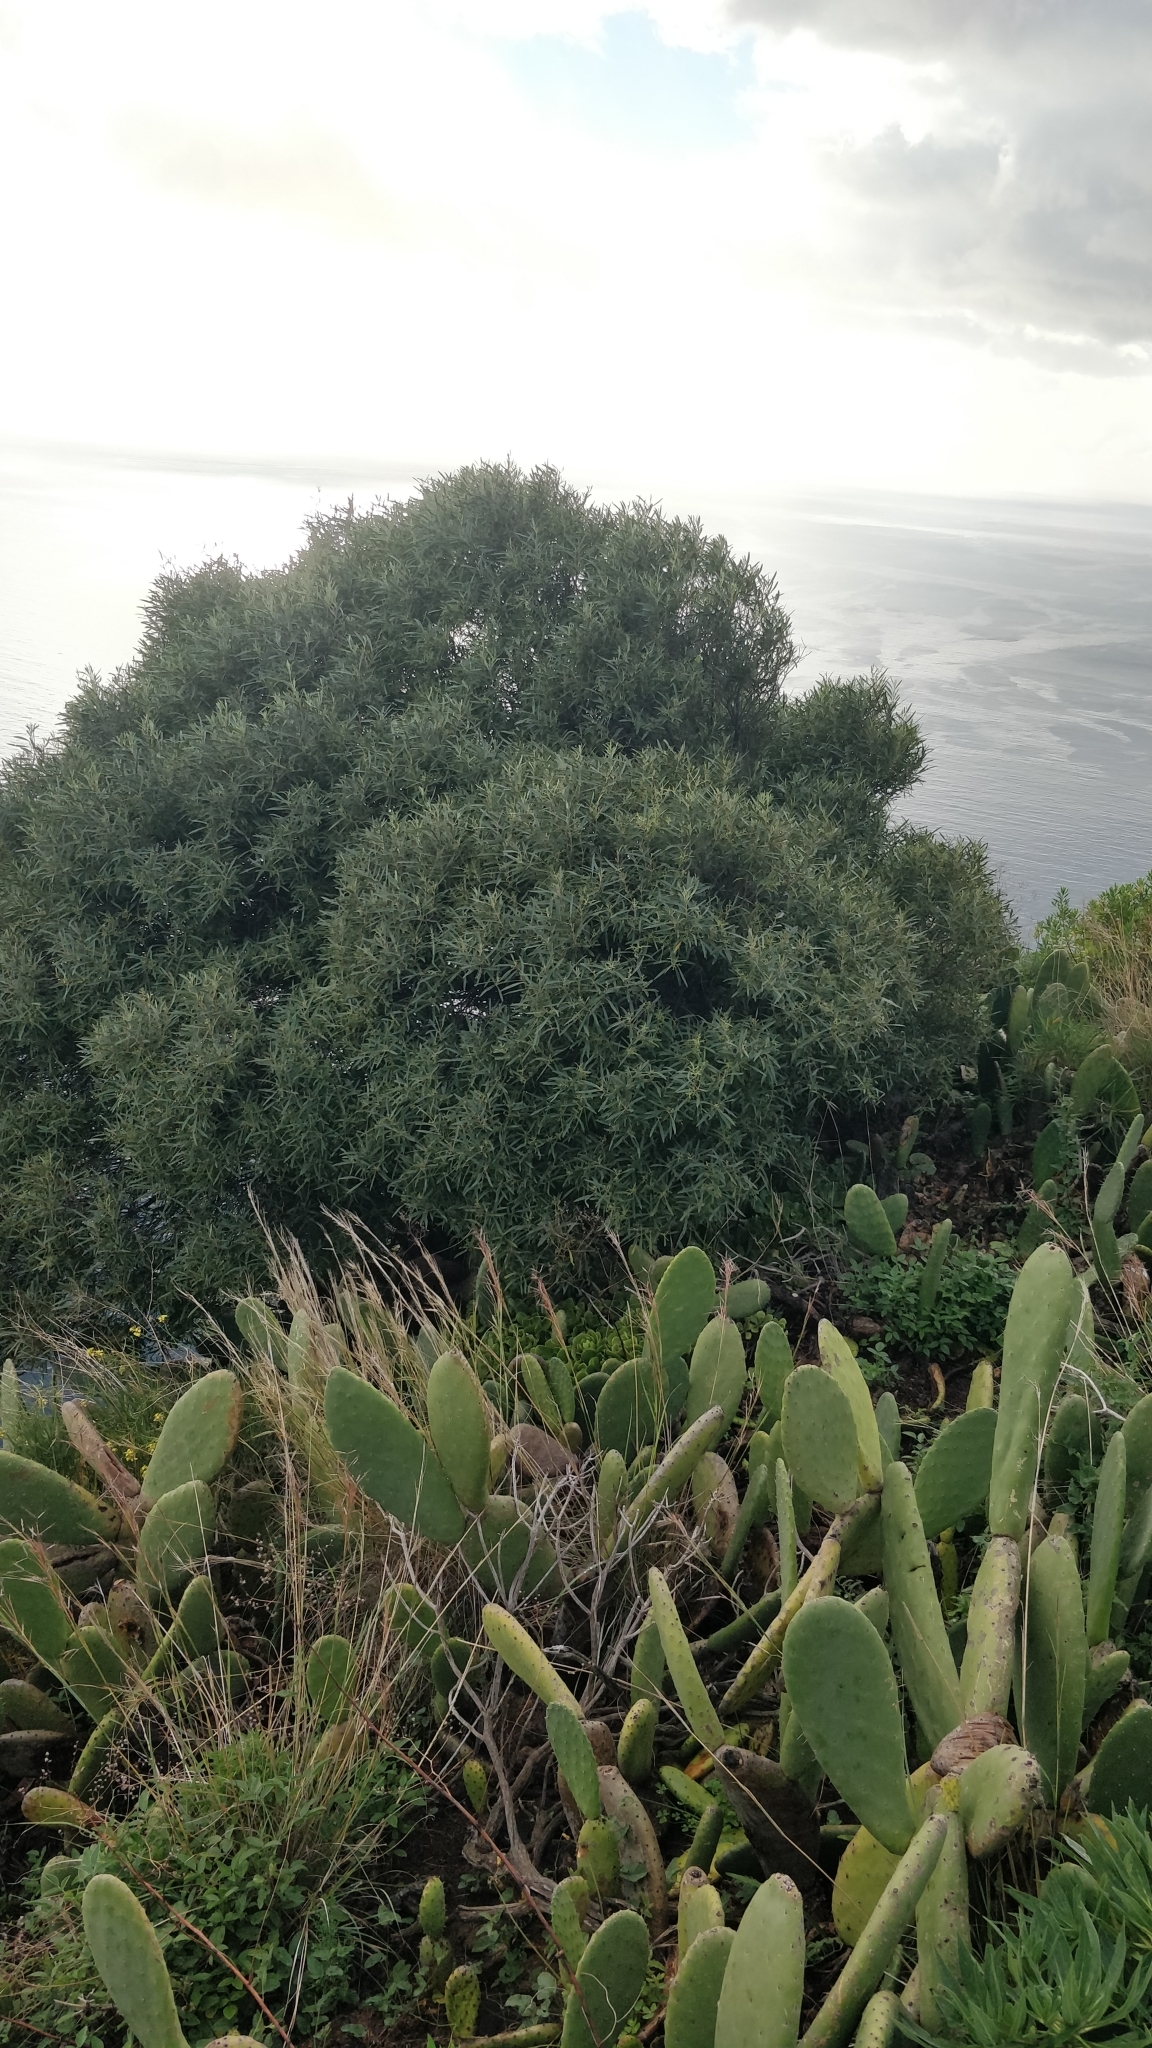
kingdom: Plantae
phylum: Tracheophyta
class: Magnoliopsida
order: Lamiales
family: Oleaceae
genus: Olea
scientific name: Olea europaea
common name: Olive
